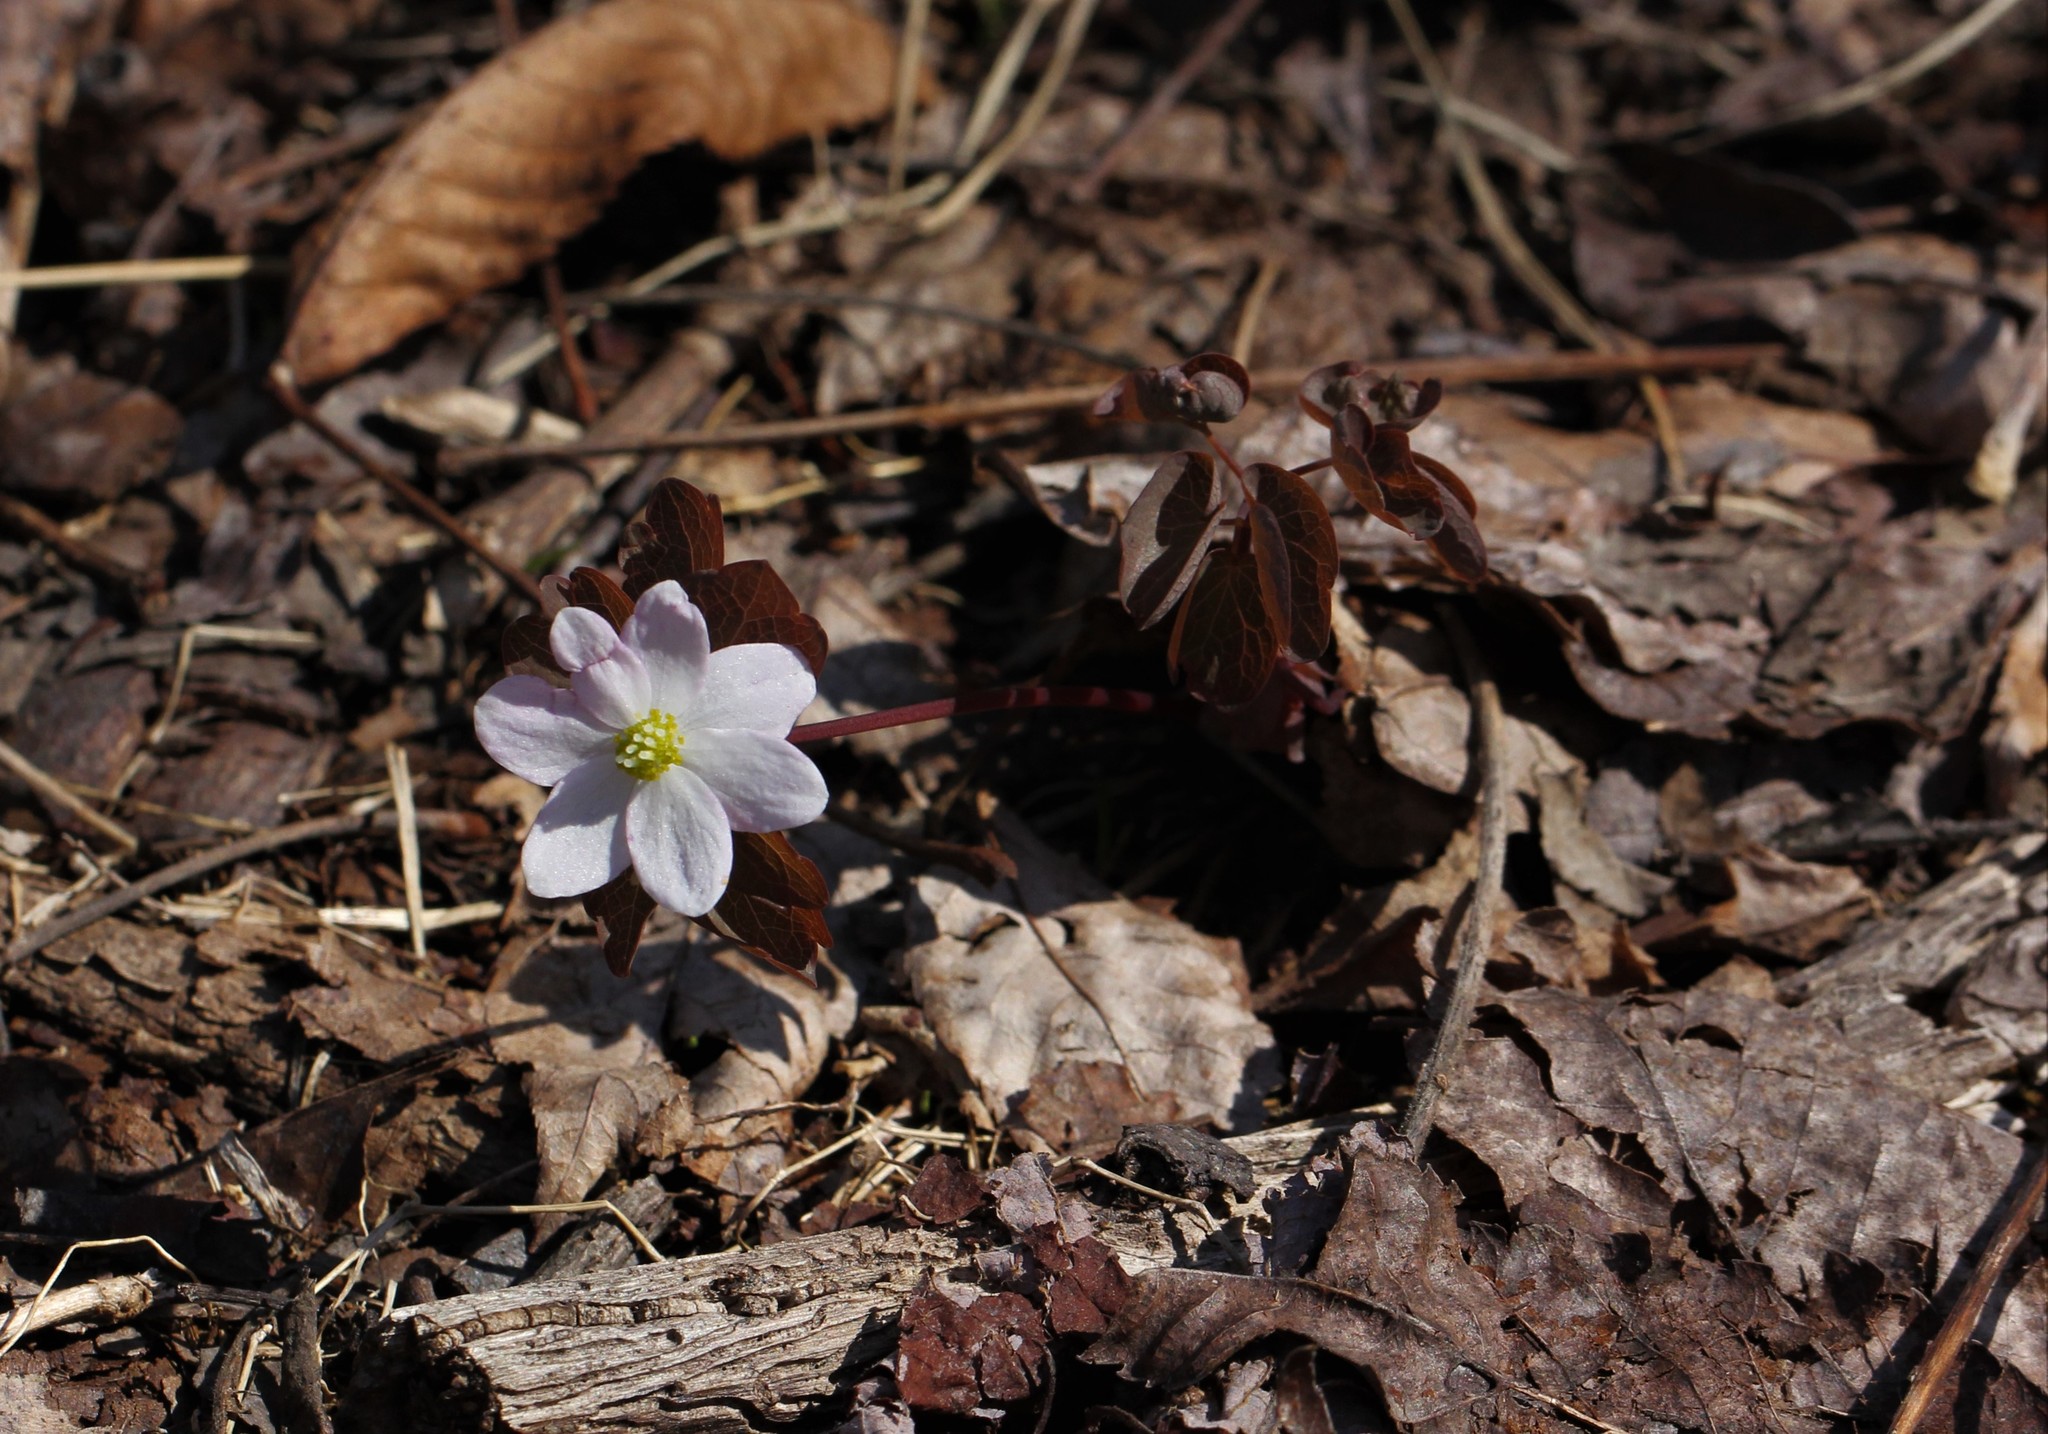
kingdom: Plantae
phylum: Tracheophyta
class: Magnoliopsida
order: Ranunculales
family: Ranunculaceae
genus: Thalictrum
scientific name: Thalictrum thalictroides
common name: Rue-anemone
